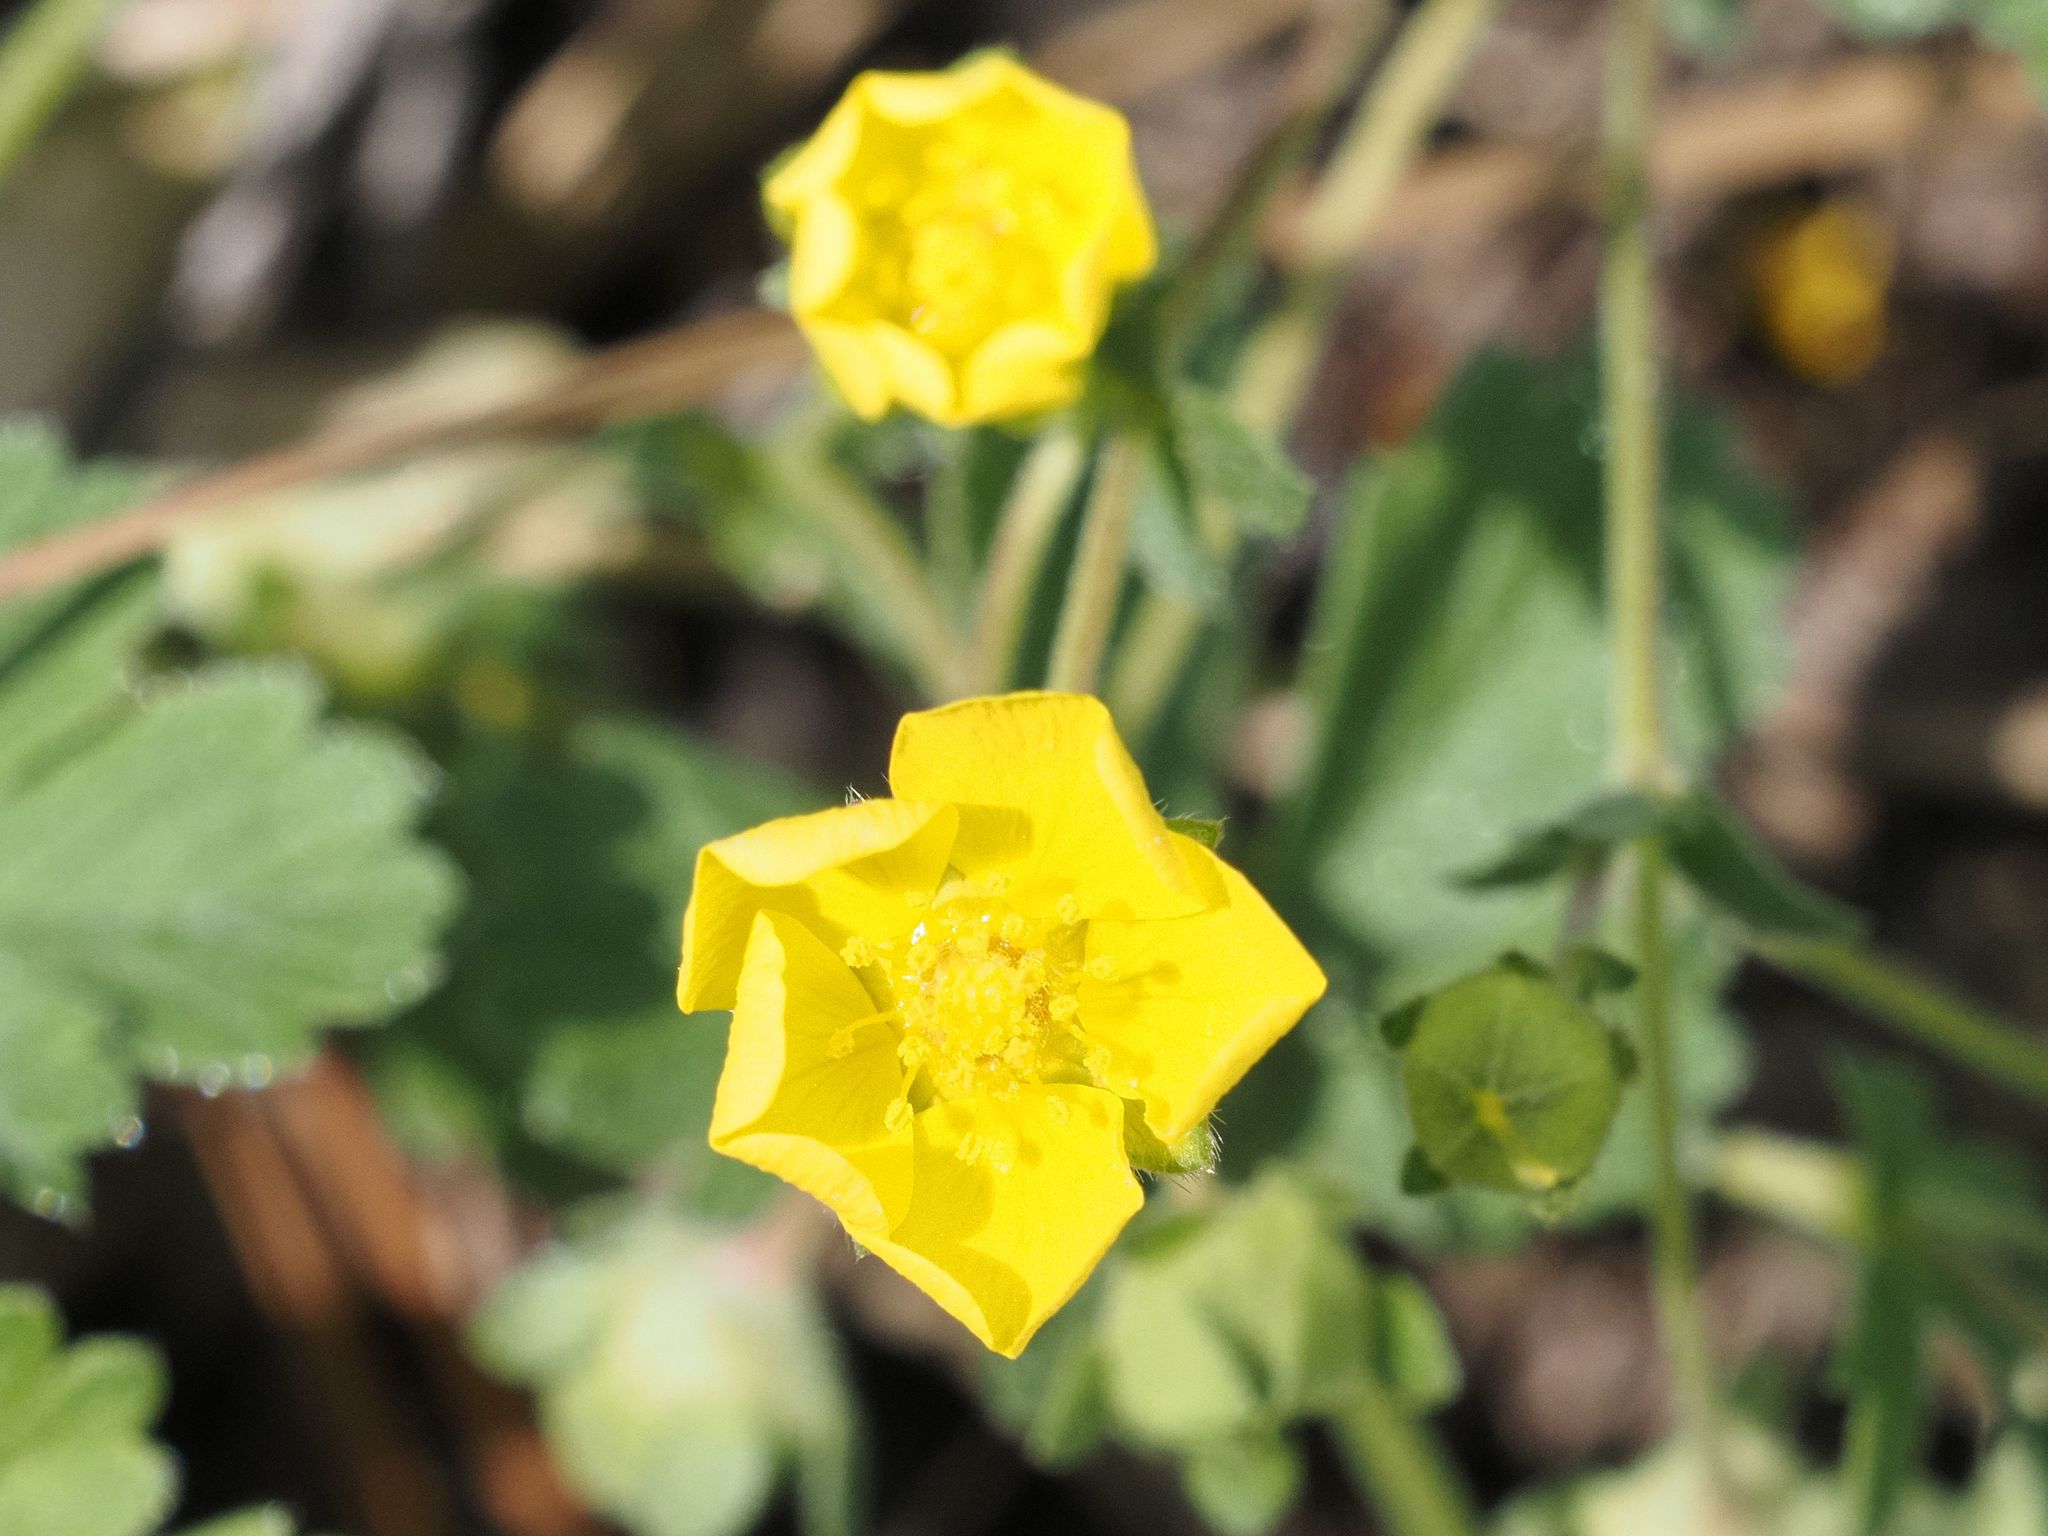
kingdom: Plantae
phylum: Tracheophyta
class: Magnoliopsida
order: Rosales
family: Rosaceae
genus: Potentilla
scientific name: Potentilla incana
